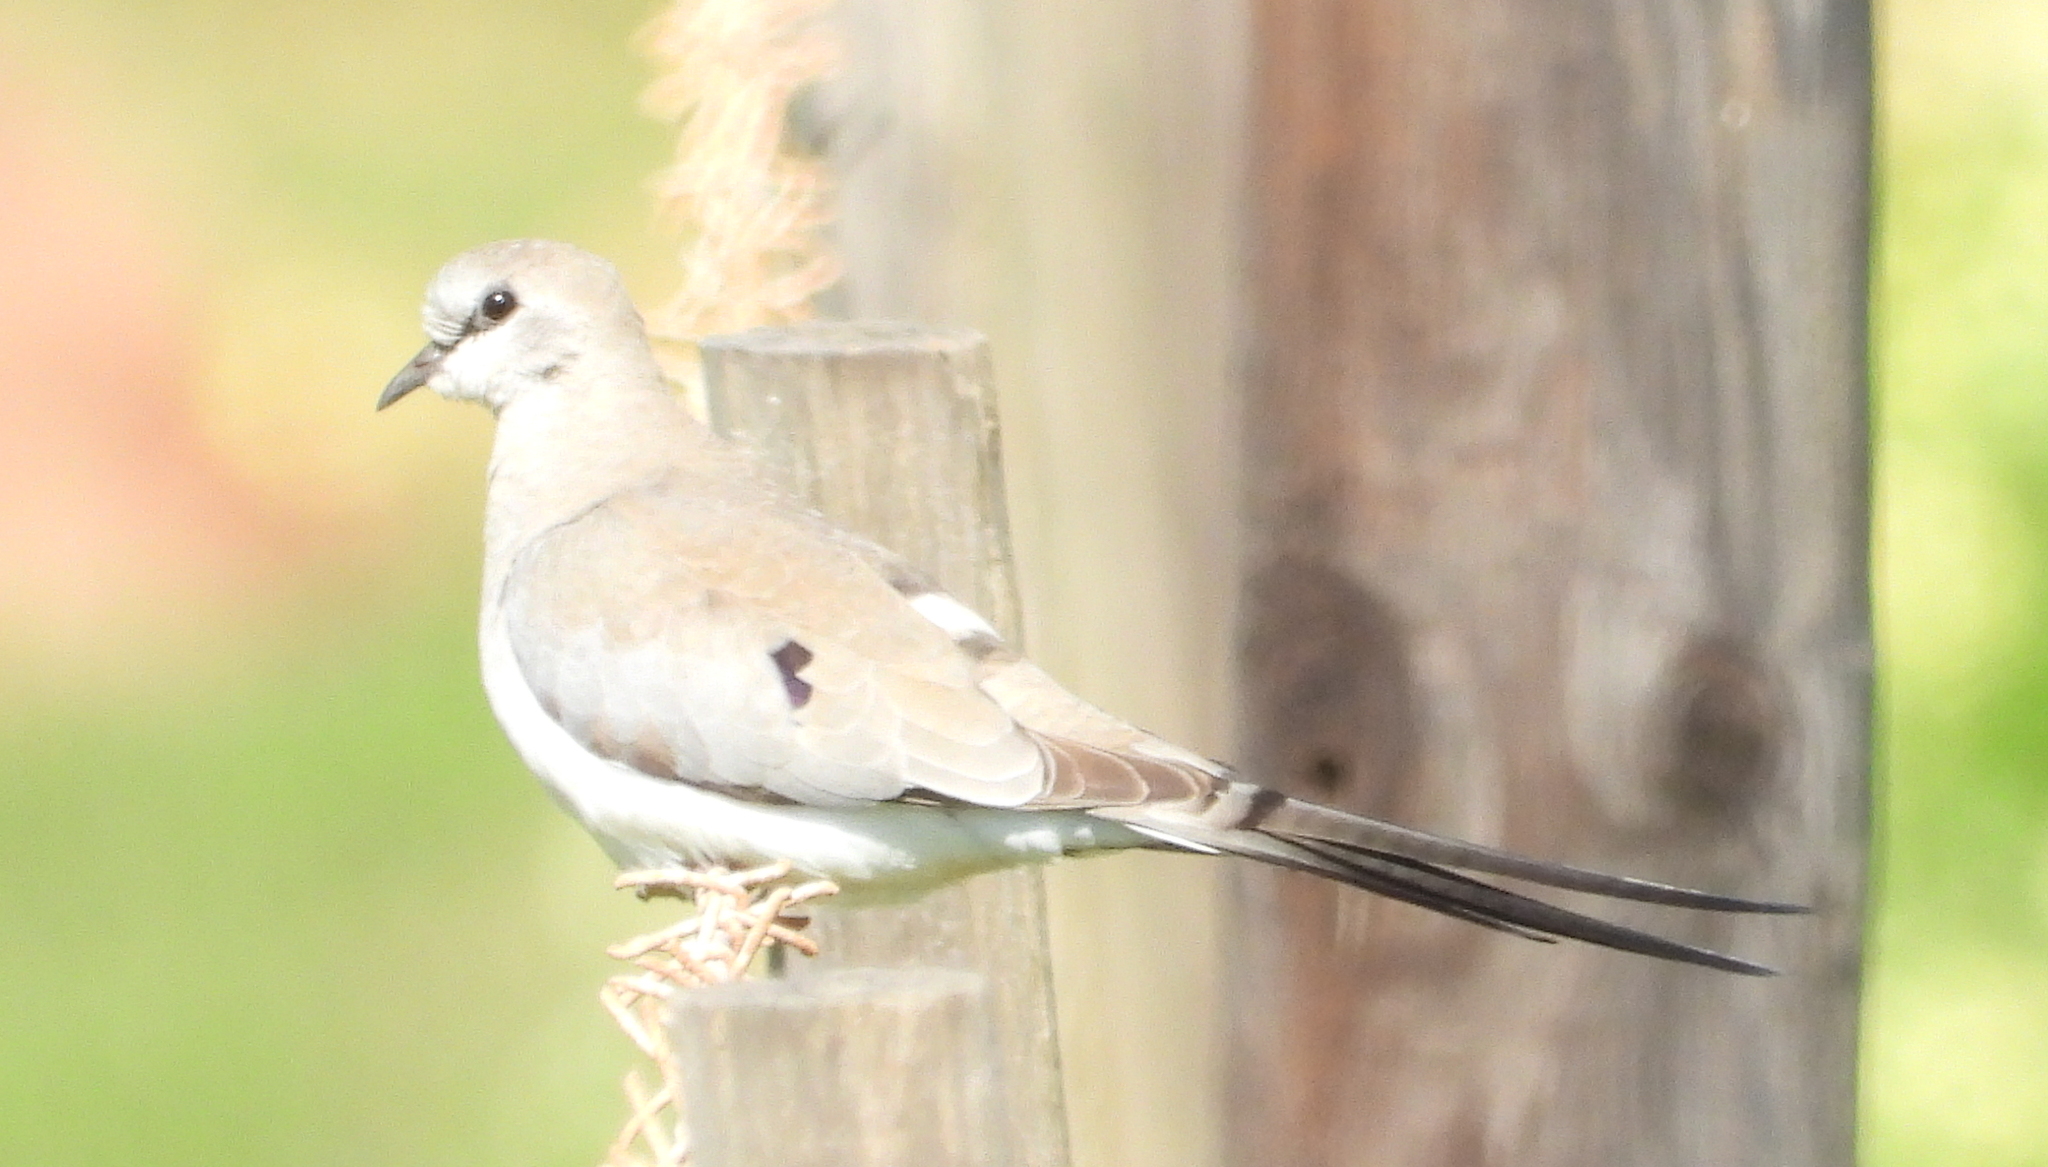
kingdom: Animalia
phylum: Chordata
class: Aves
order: Columbiformes
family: Columbidae
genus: Oena
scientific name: Oena capensis
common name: Namaqua dove
